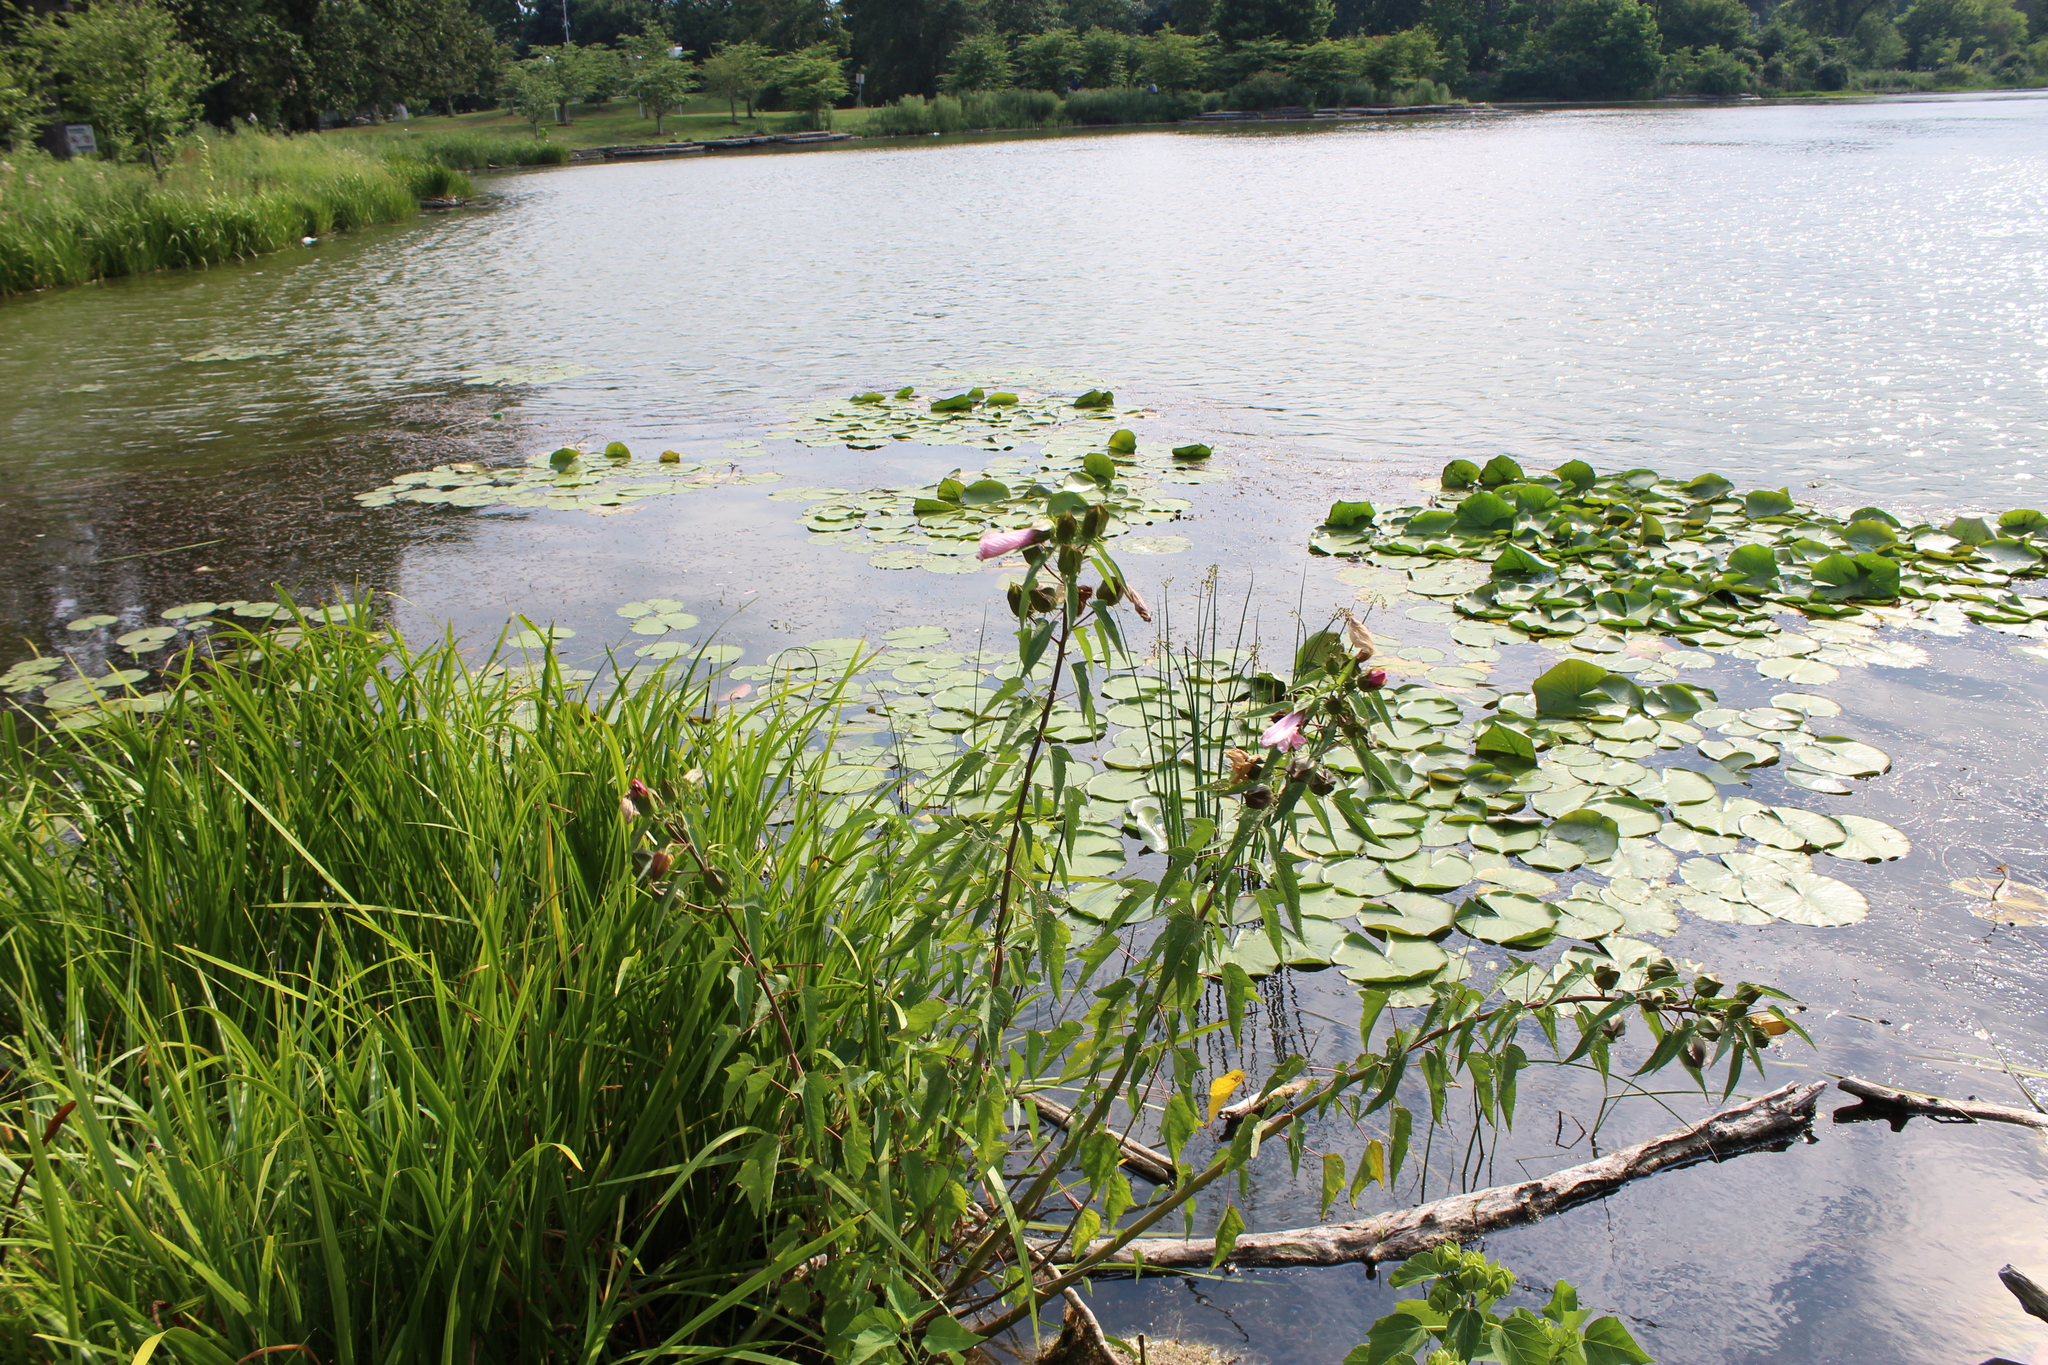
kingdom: Plantae
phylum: Tracheophyta
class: Magnoliopsida
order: Malvales
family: Malvaceae
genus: Hibiscus
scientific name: Hibiscus laevis
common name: Scarlet rose-mallow
